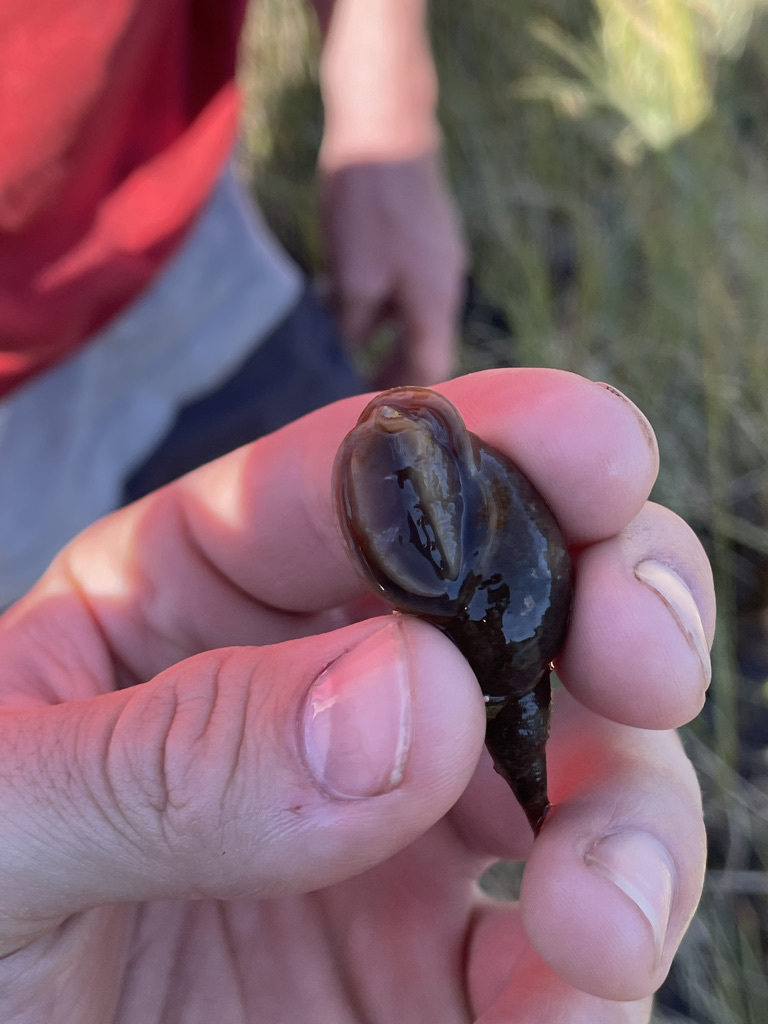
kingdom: Animalia
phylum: Mollusca
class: Gastropoda
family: Lymnaeidae
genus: Lymnaea
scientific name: Lymnaea stagnalis
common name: Great pond snail
